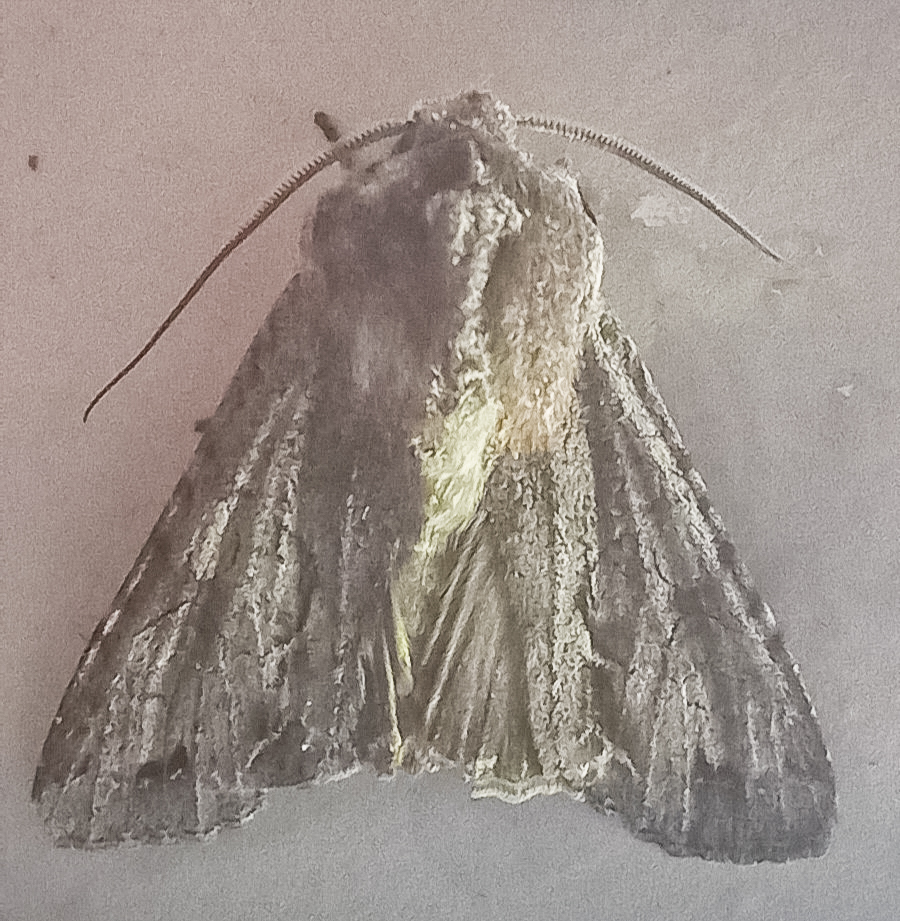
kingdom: Animalia
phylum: Arthropoda
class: Insecta
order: Lepidoptera
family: Noctuidae
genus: Ichneutica
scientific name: Ichneutica
